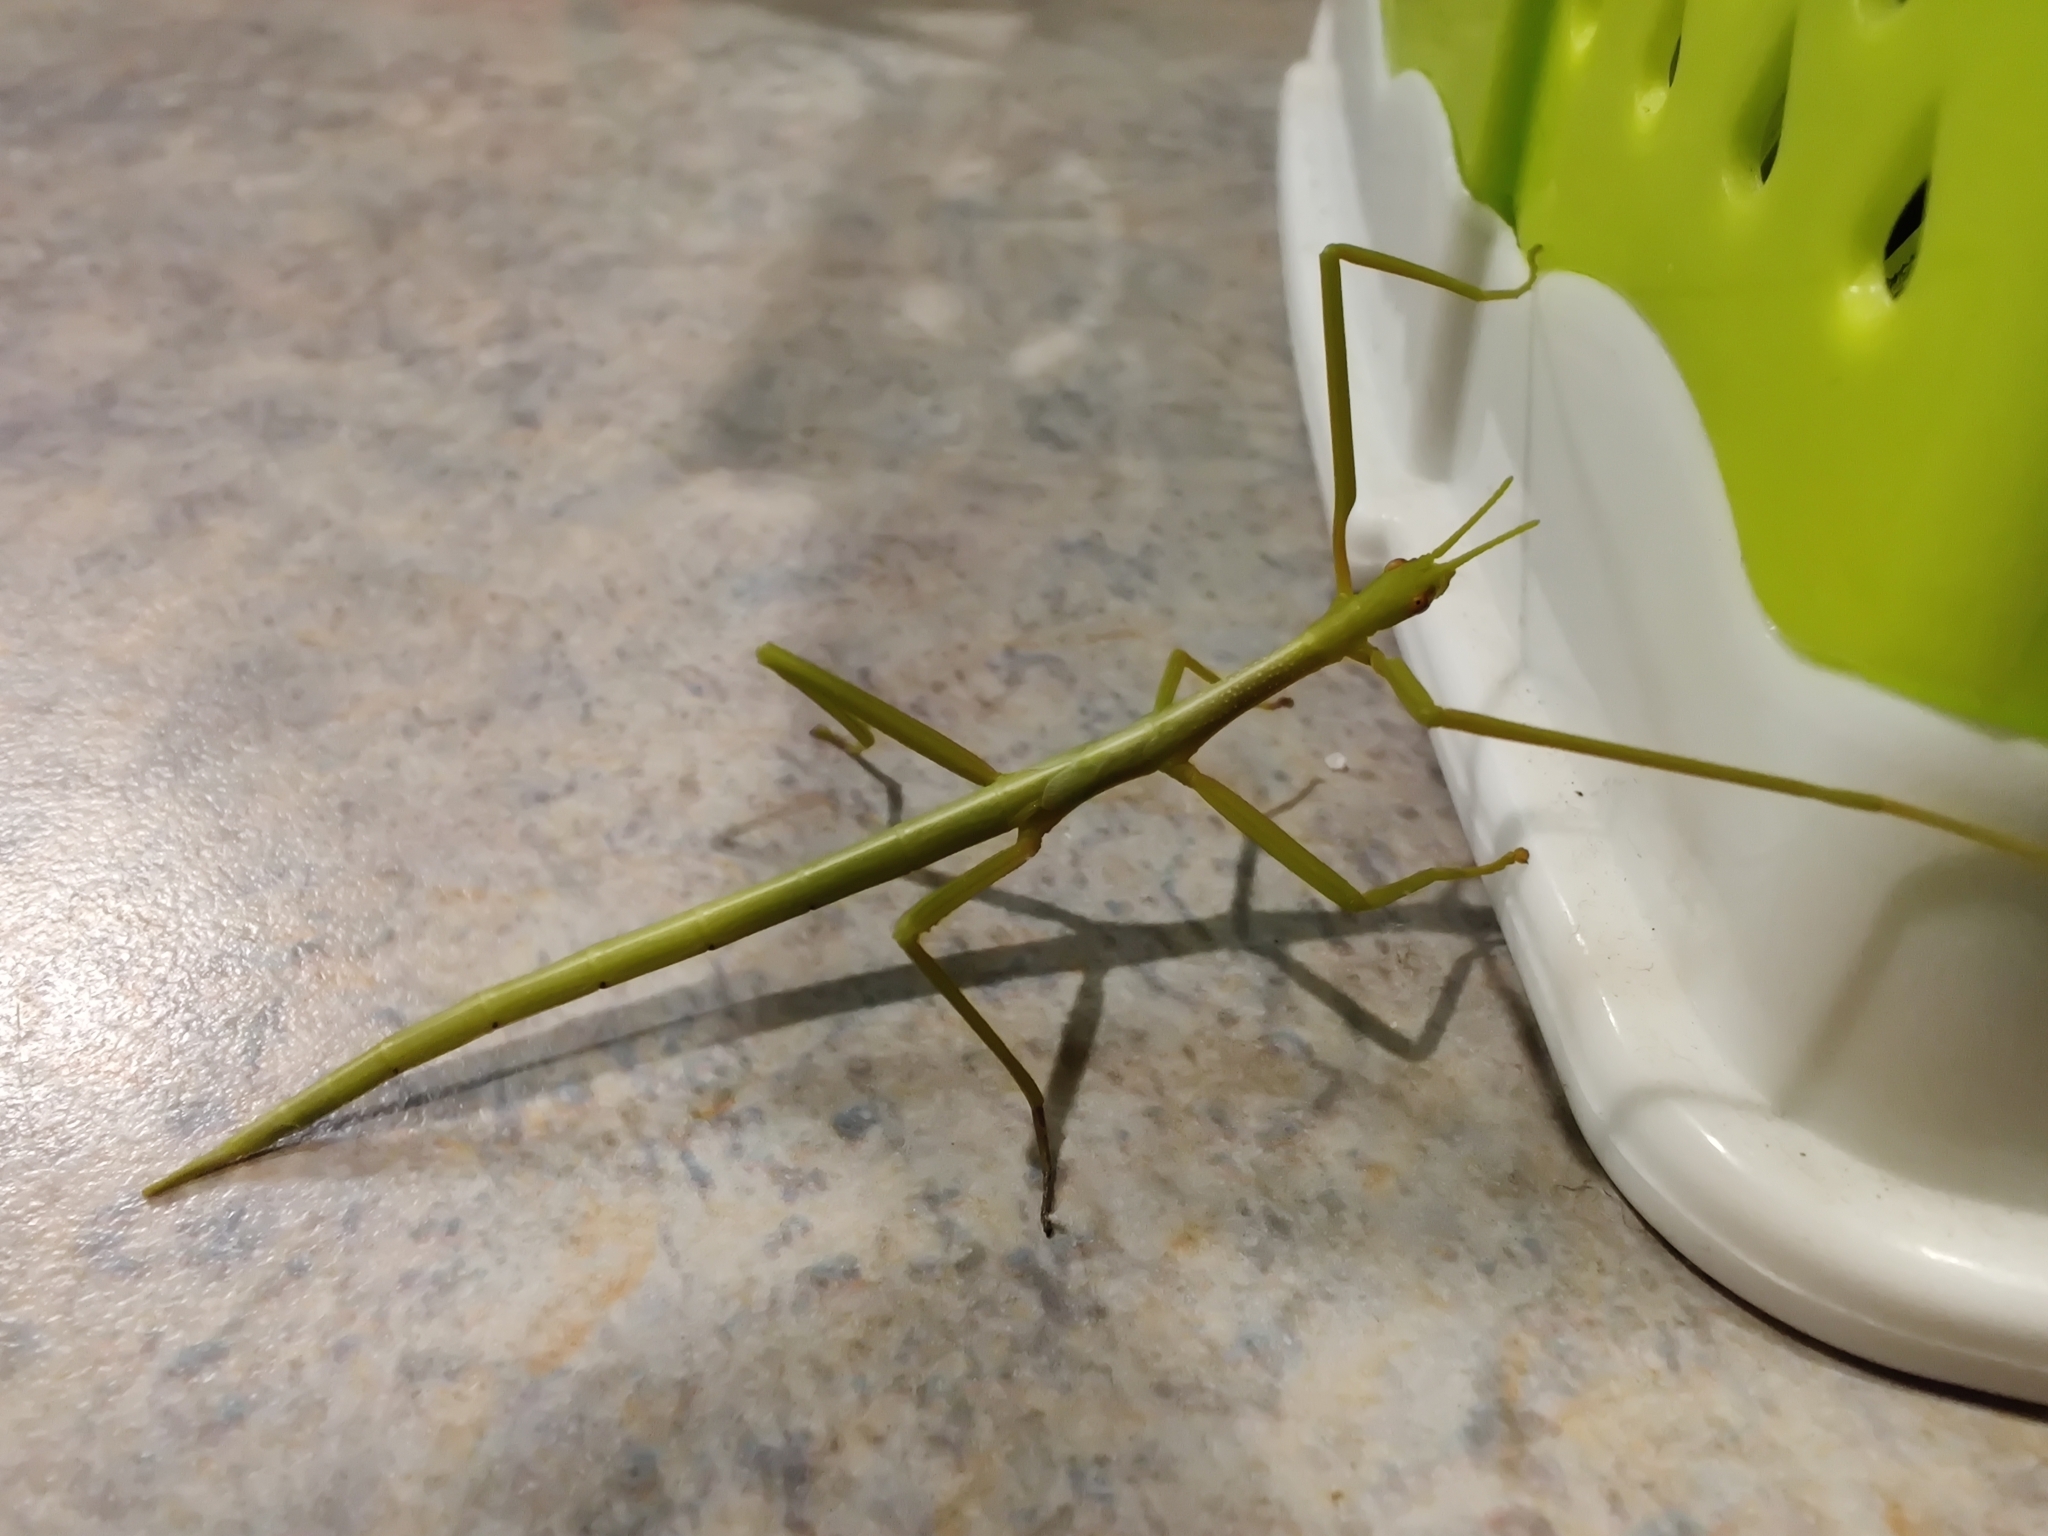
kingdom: Animalia
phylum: Arthropoda
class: Insecta
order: Phasmida
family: Phasmatidae
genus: Didymuria
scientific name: Didymuria violescens
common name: Spur-legged stick-insect
